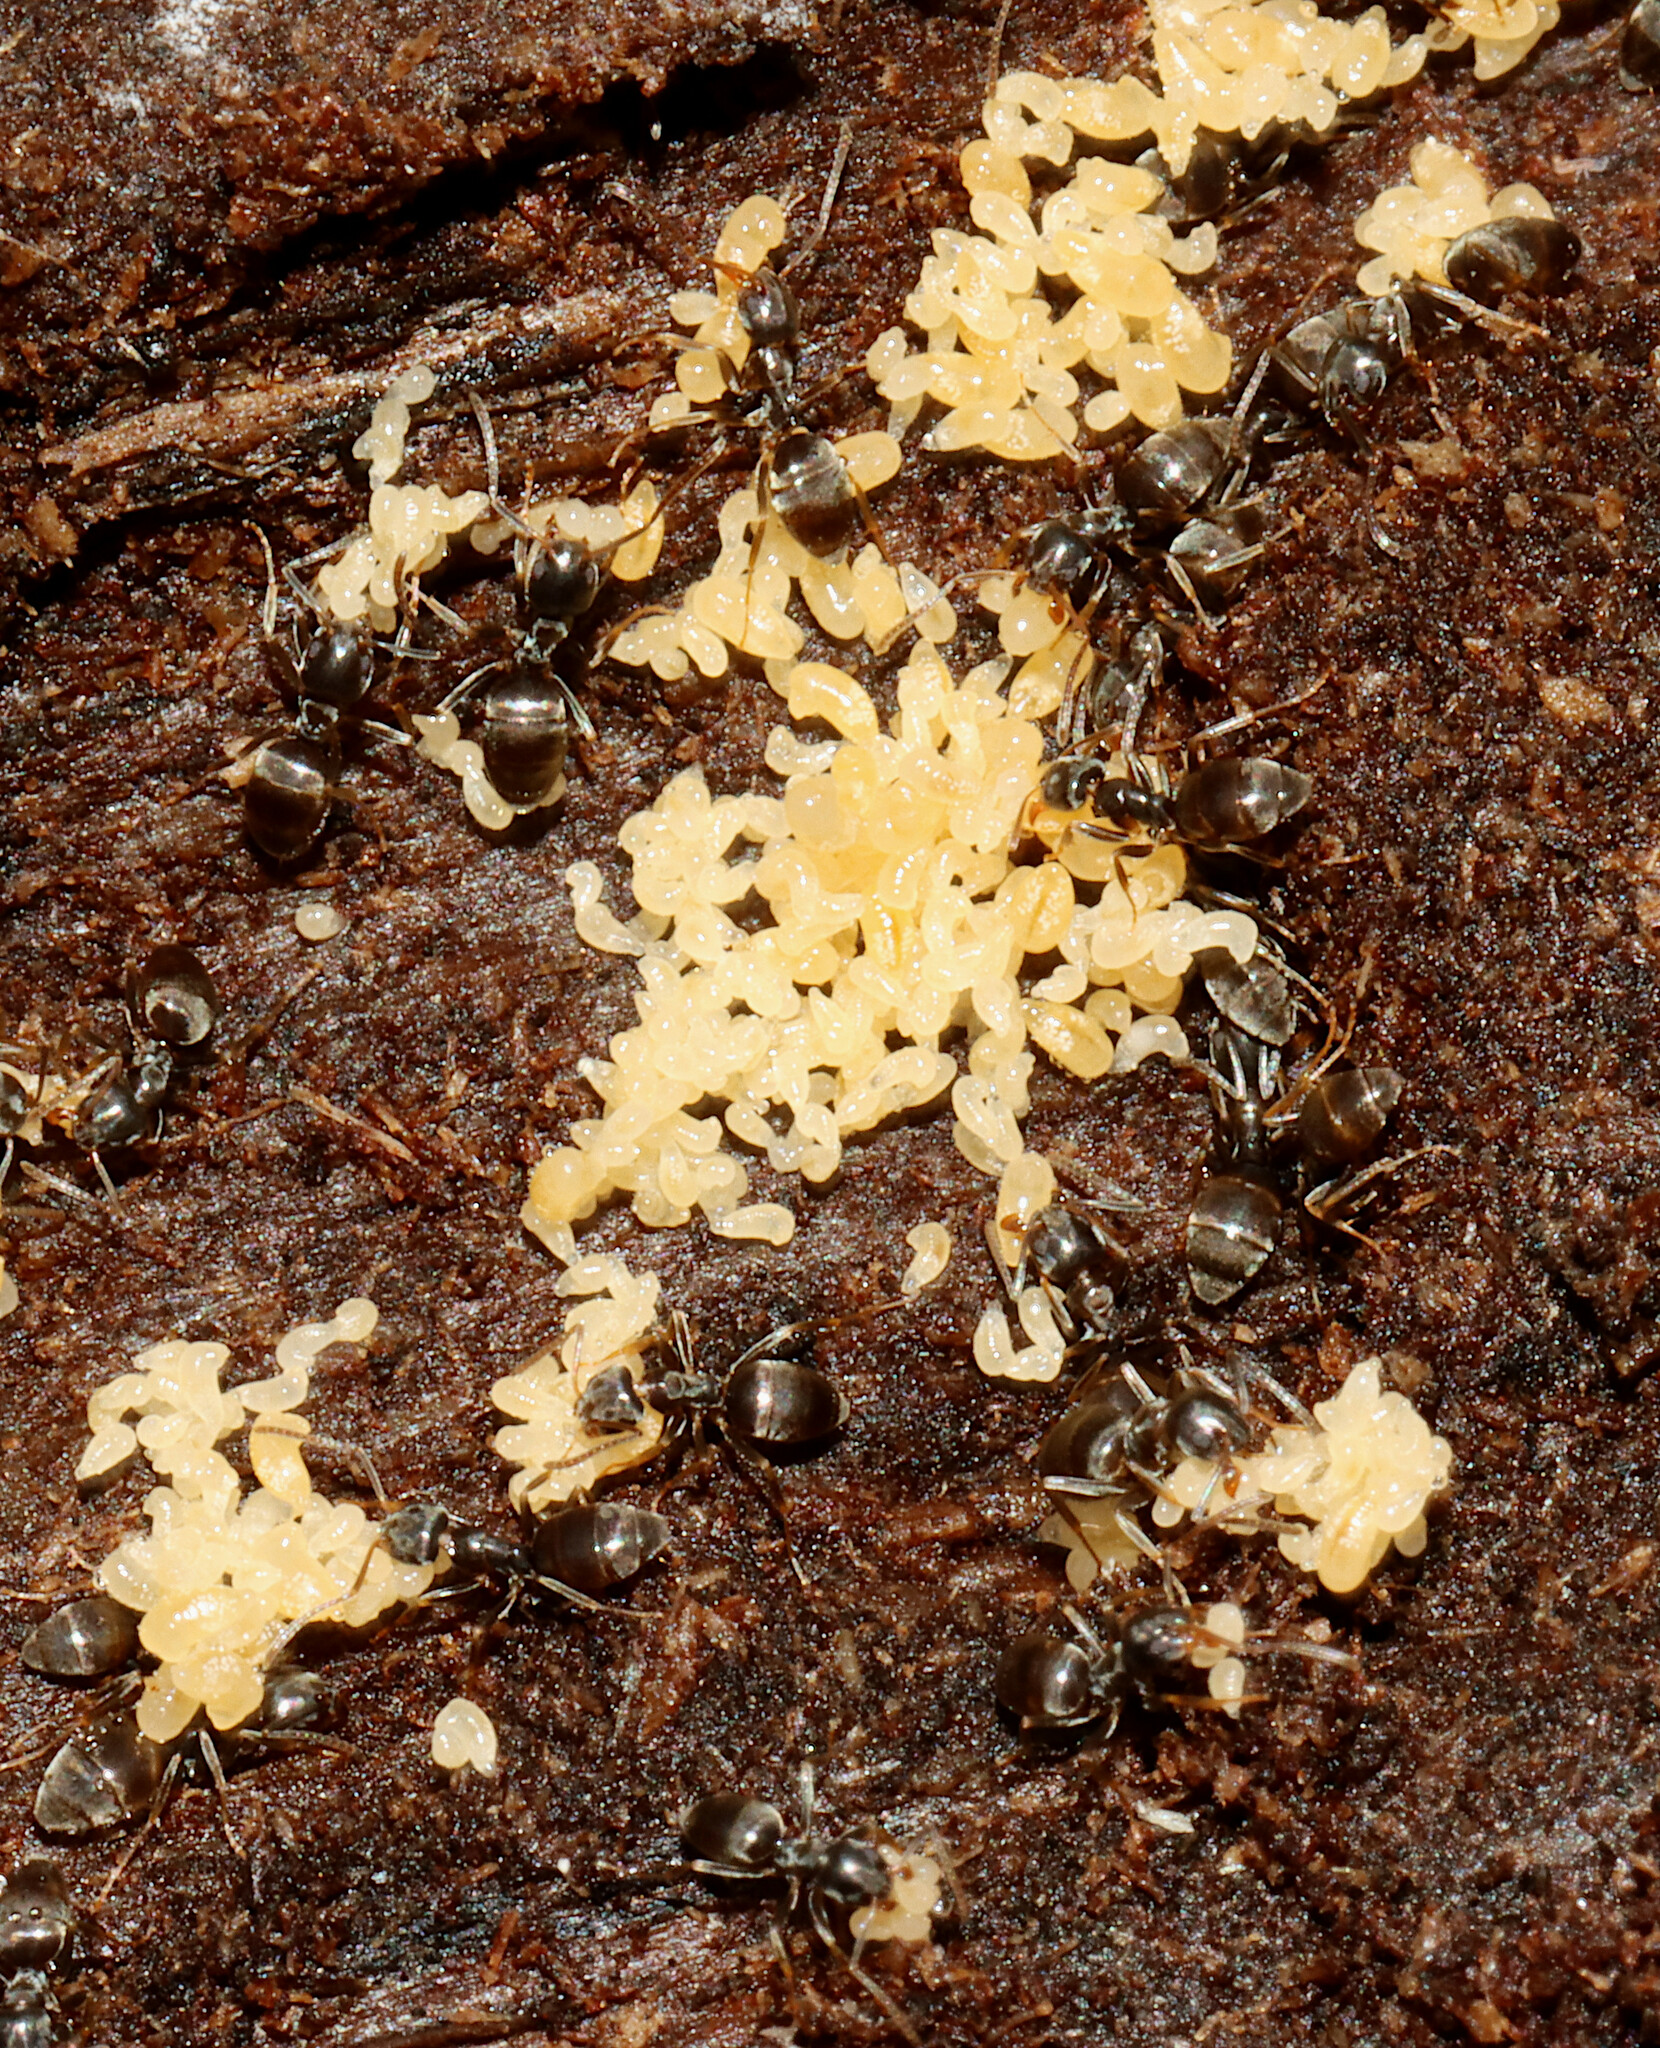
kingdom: Animalia
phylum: Arthropoda
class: Insecta
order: Hymenoptera
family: Formicidae
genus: Tapinoma
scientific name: Tapinoma sessile
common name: Odorous house ant
